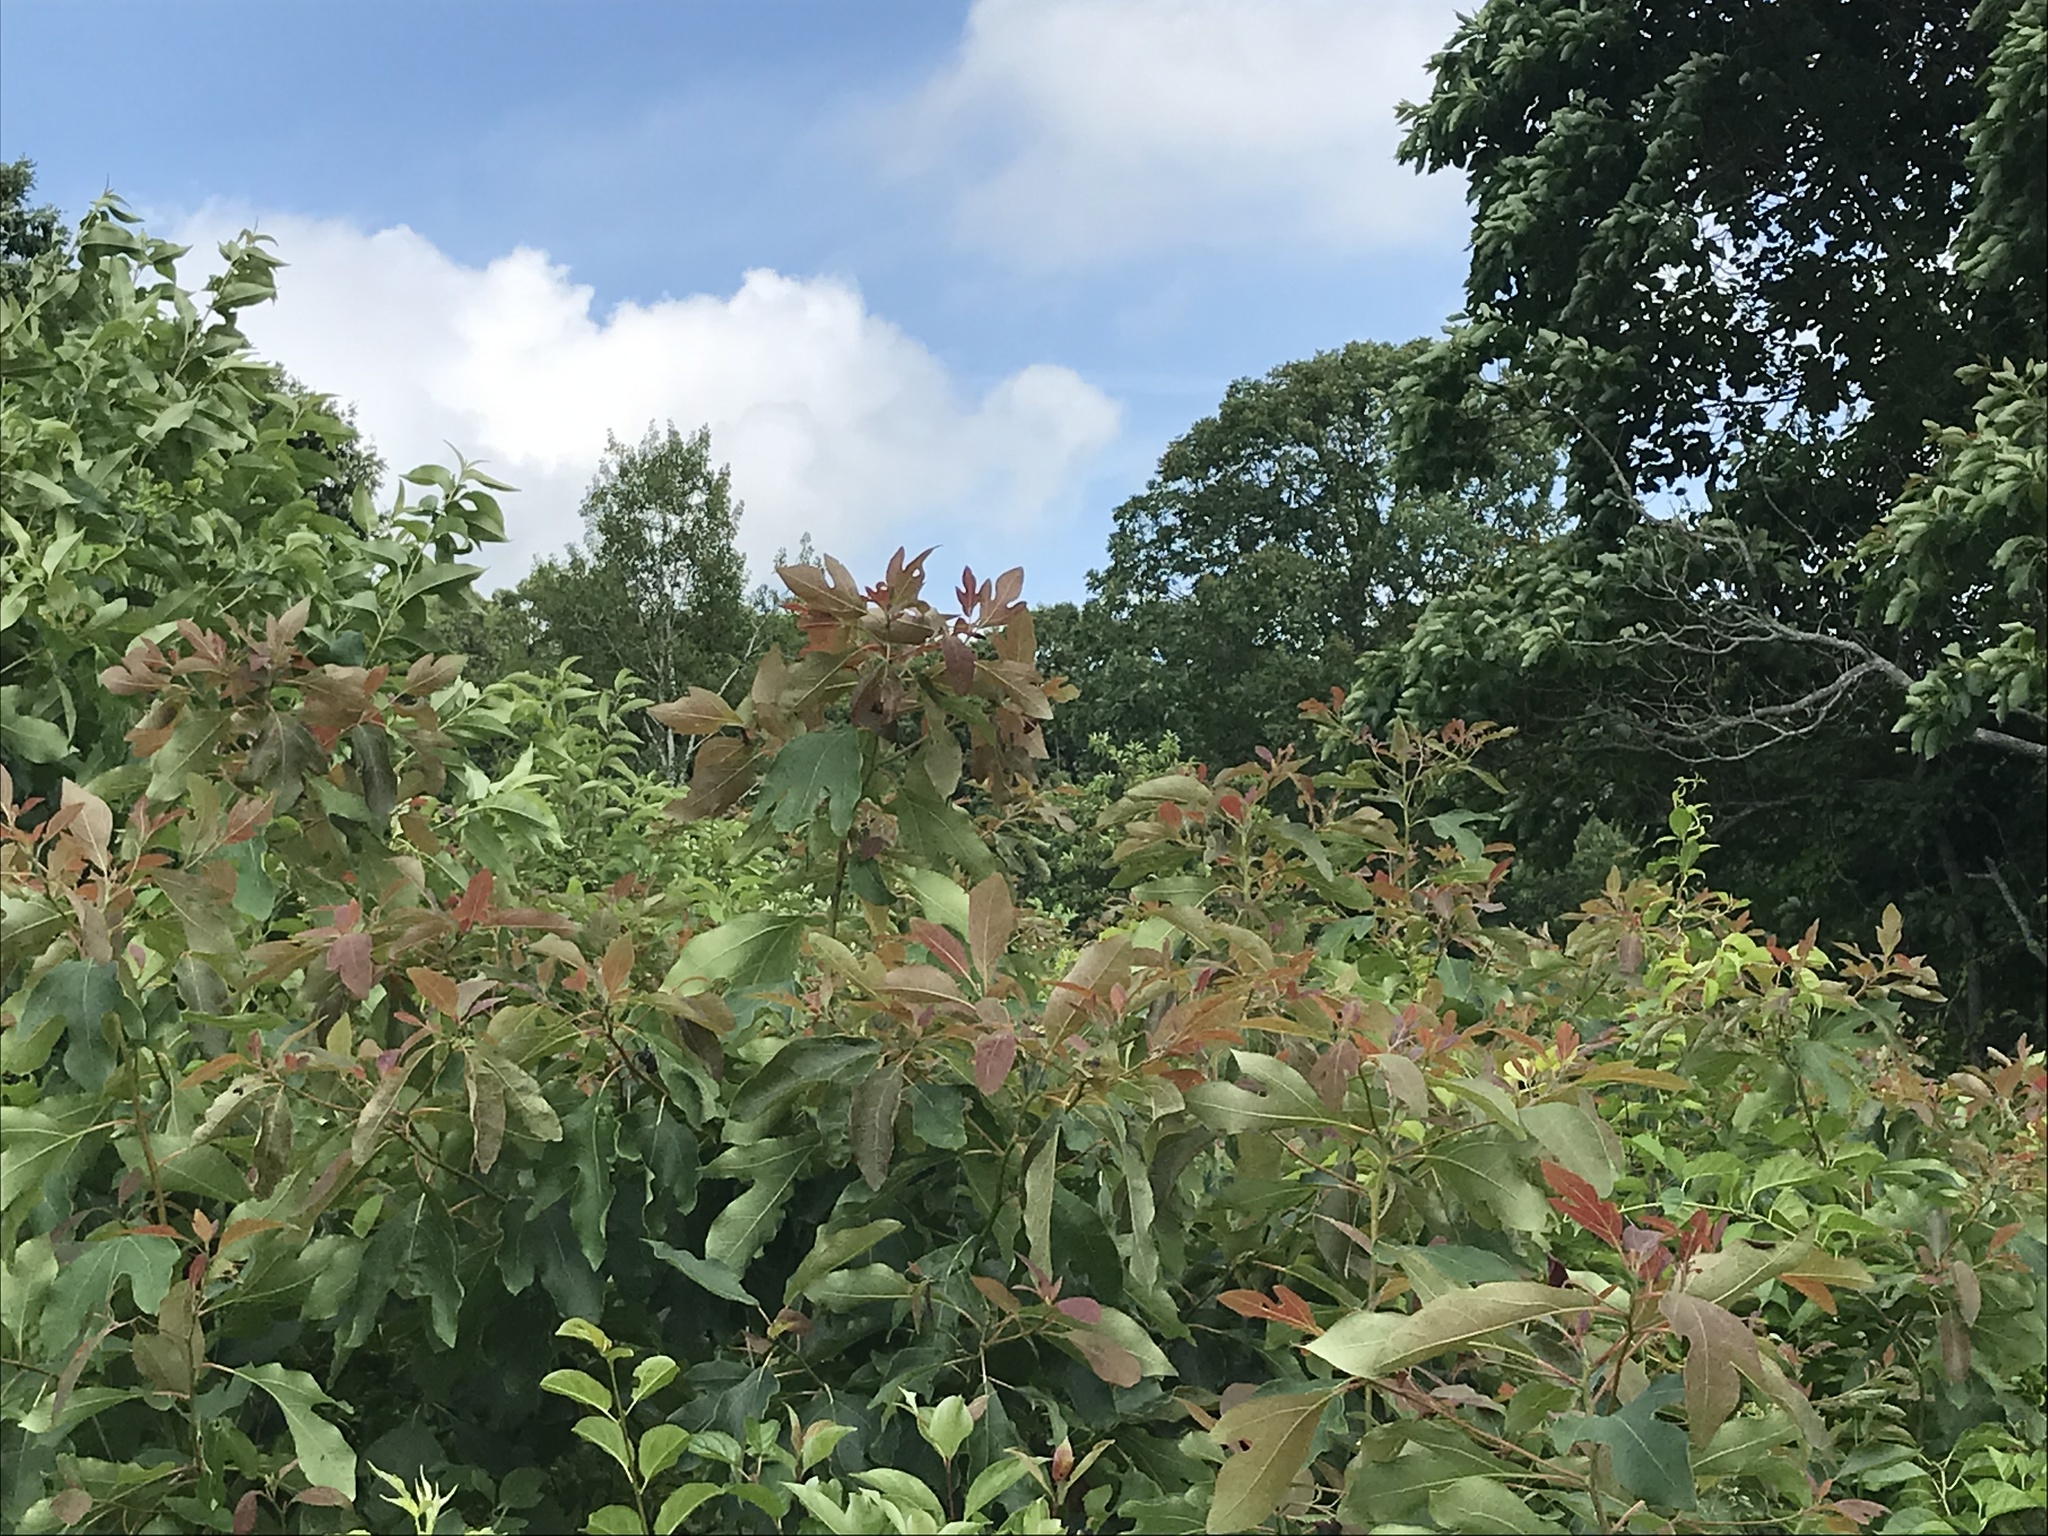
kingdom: Plantae
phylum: Tracheophyta
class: Magnoliopsida
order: Laurales
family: Lauraceae
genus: Sassafras
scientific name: Sassafras albidum
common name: Sassafras
